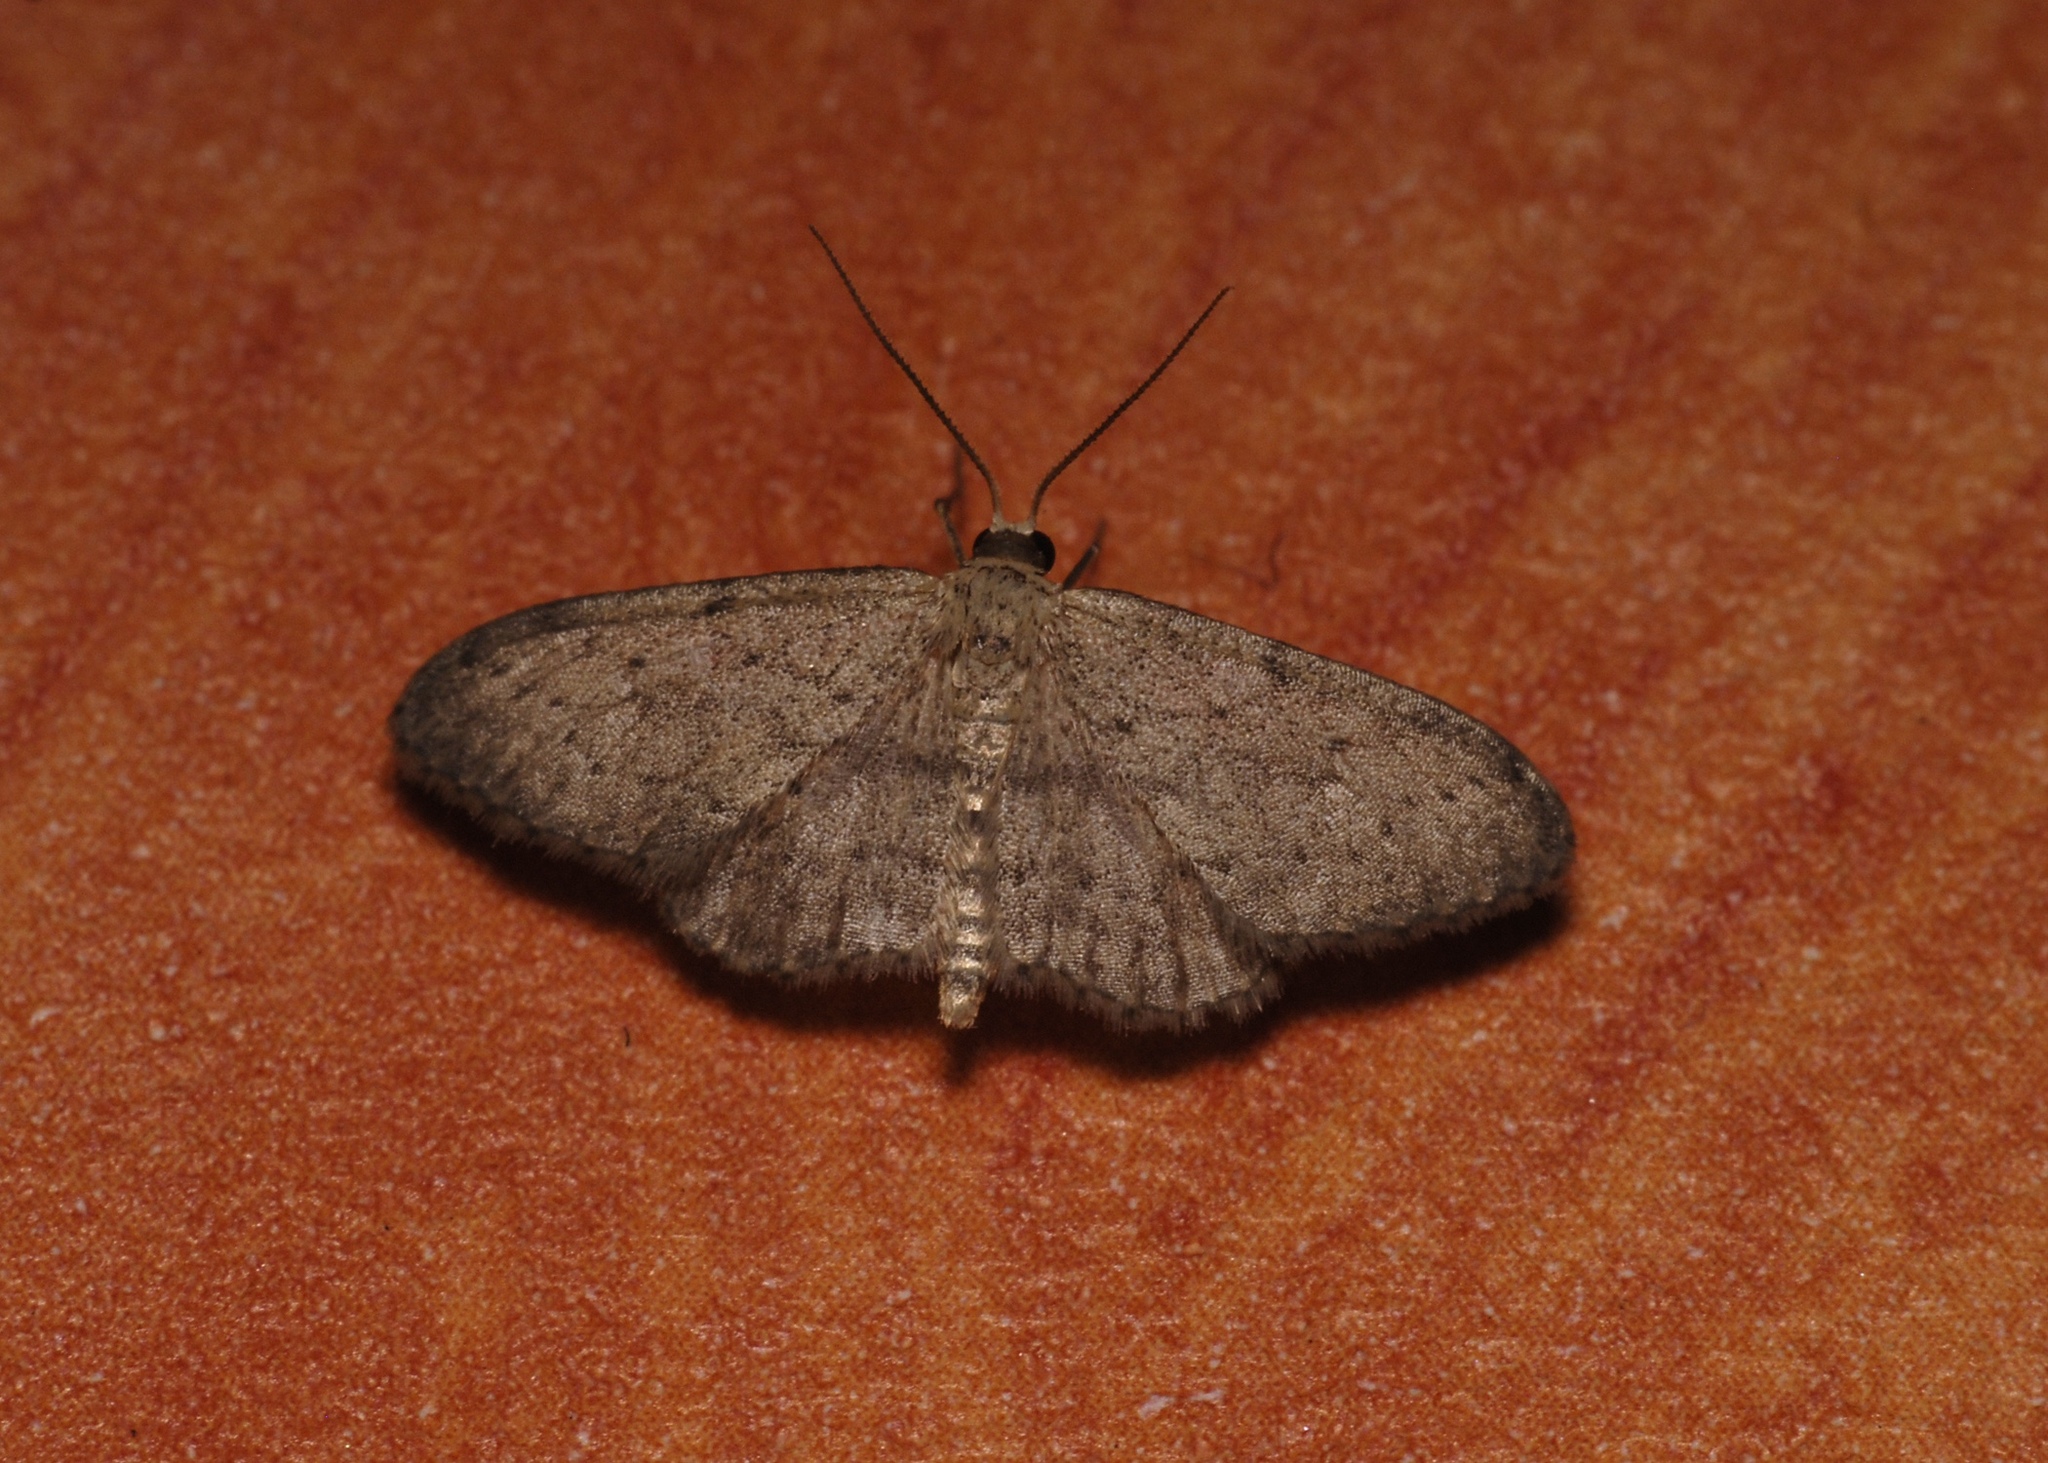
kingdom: Animalia
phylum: Arthropoda
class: Insecta
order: Lepidoptera
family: Geometridae
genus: Idaea
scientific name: Idaea seriata
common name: Small dusty wave
